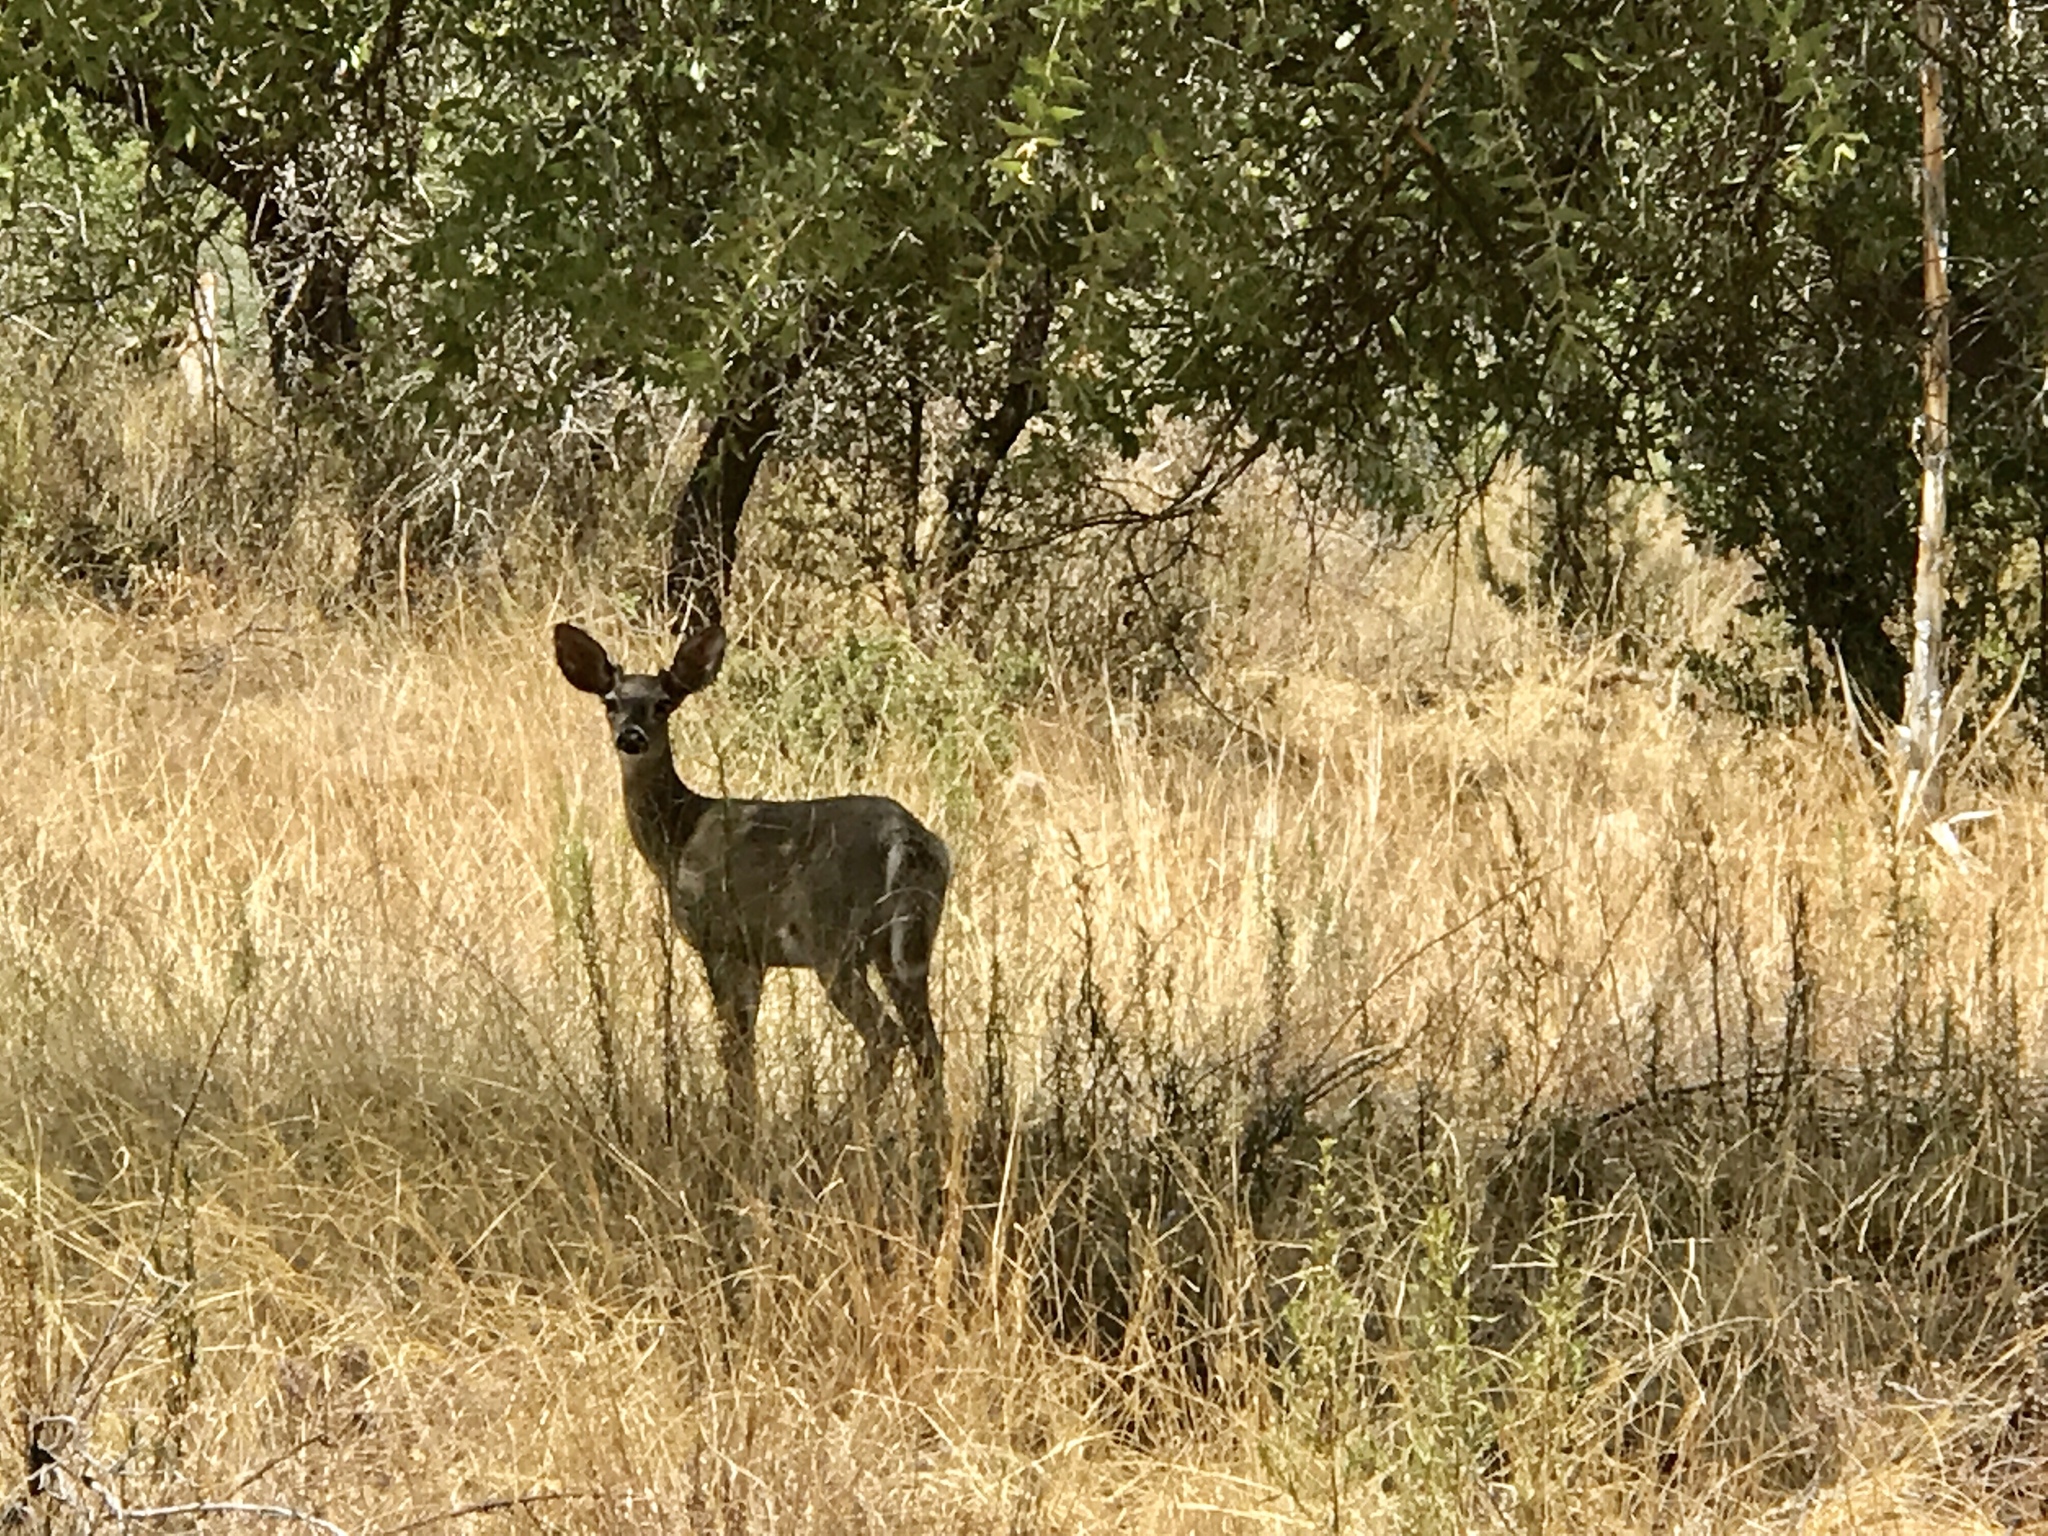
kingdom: Animalia
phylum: Chordata
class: Mammalia
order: Artiodactyla
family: Cervidae
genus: Odocoileus
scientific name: Odocoileus virginianus
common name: White-tailed deer
